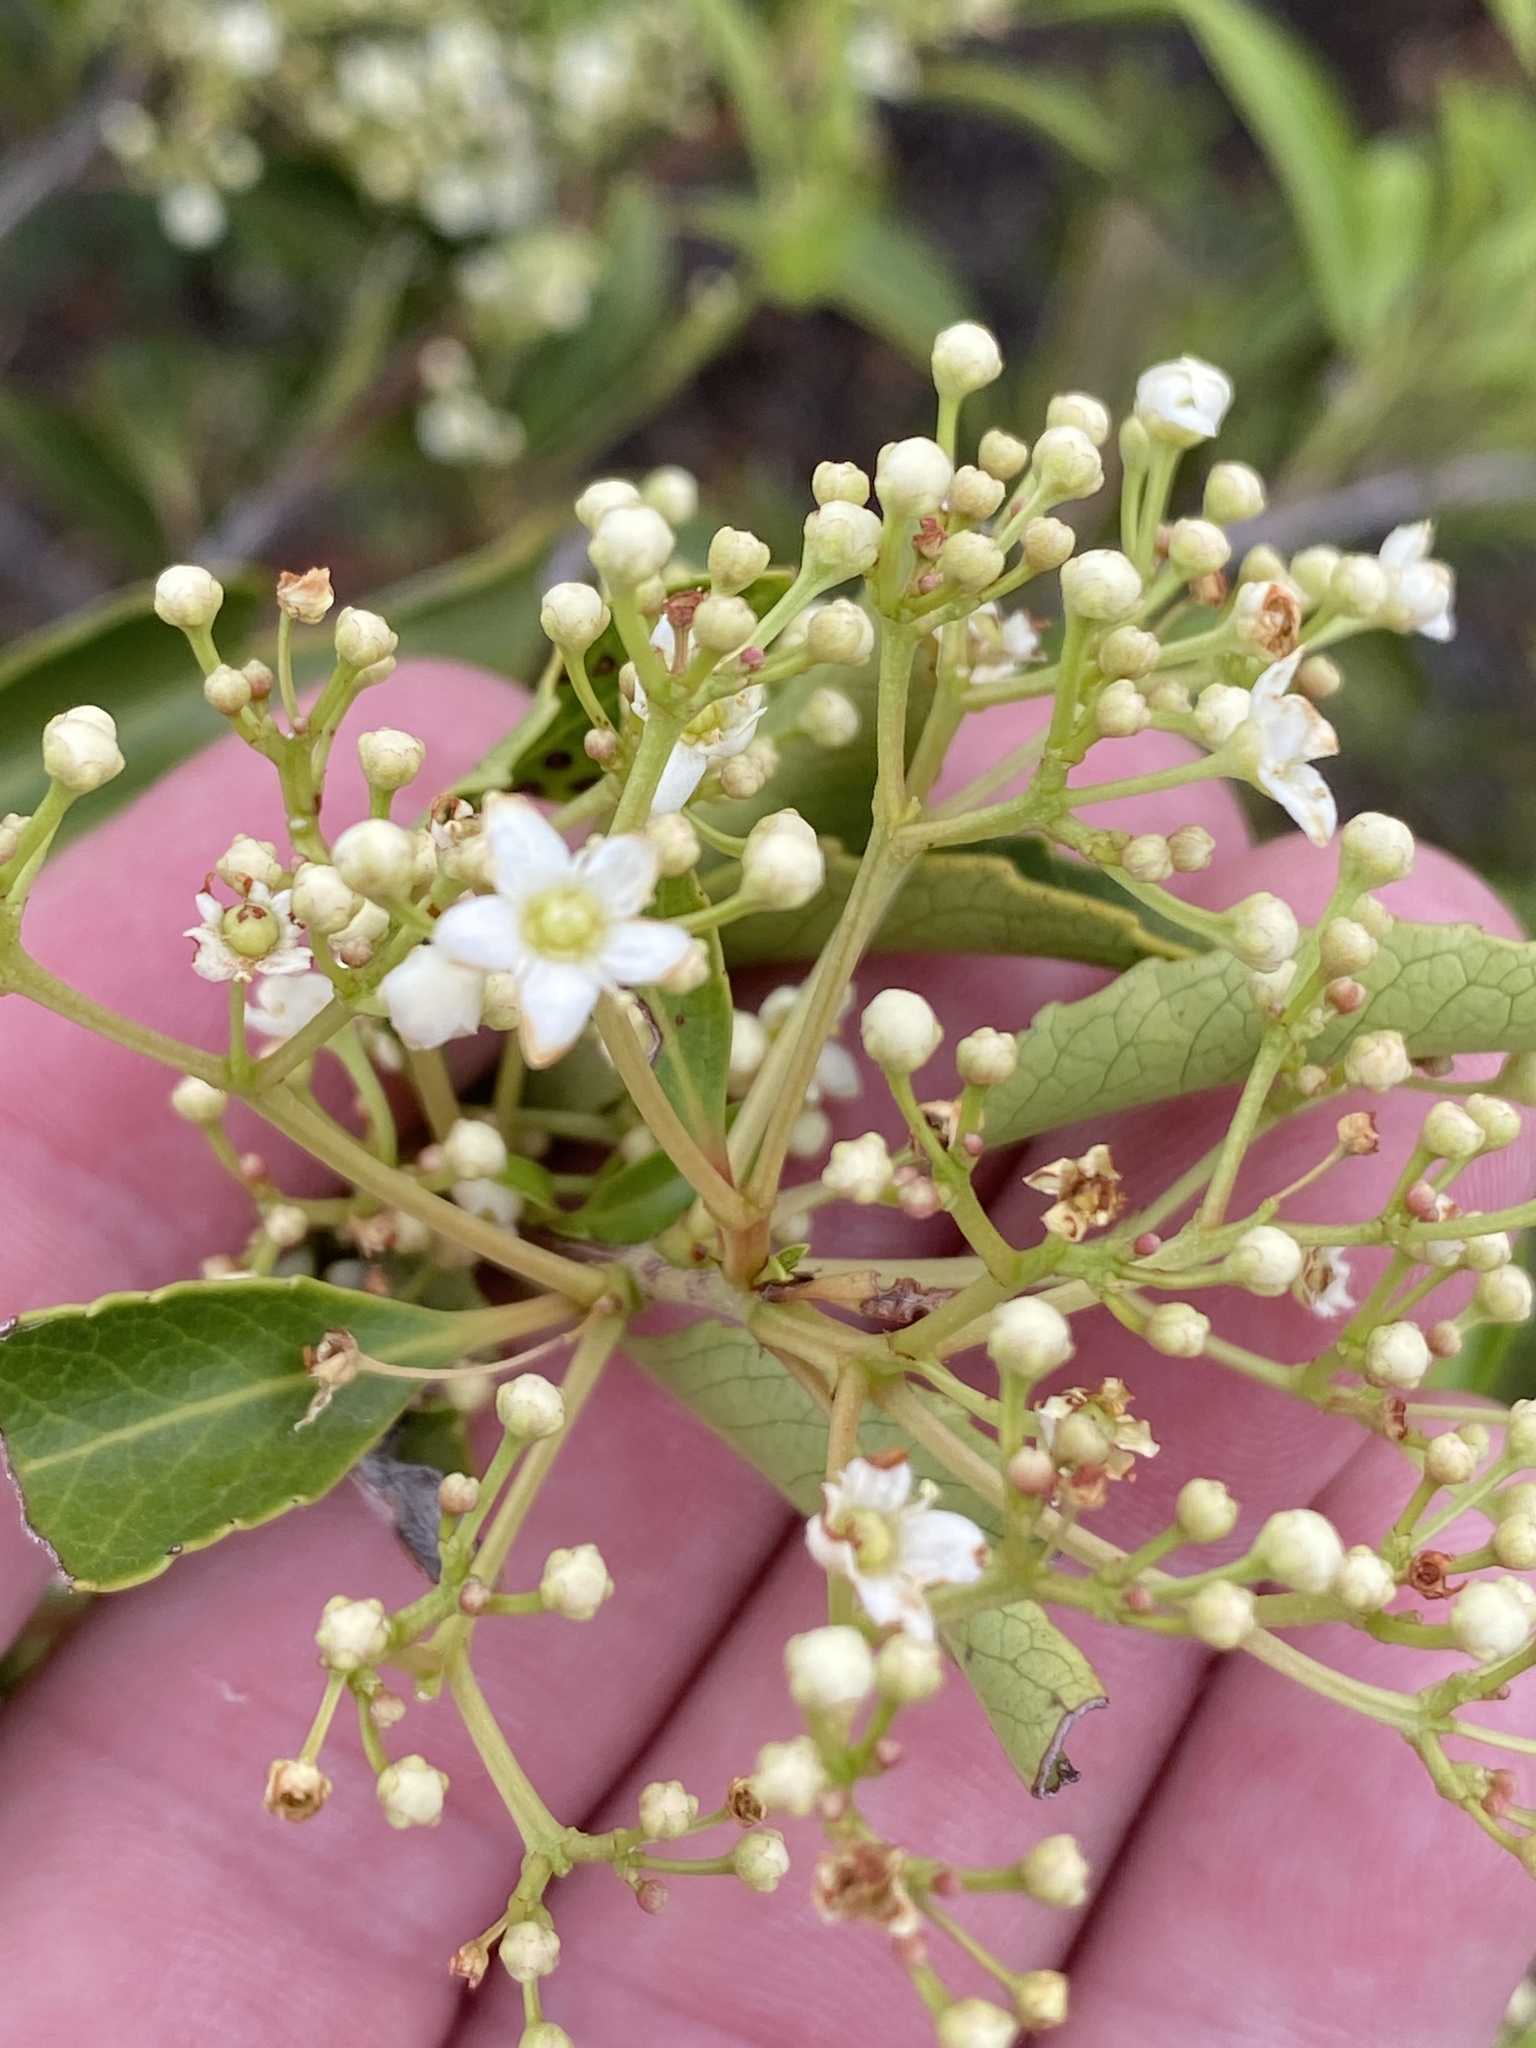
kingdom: Plantae
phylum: Tracheophyta
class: Magnoliopsida
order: Celastrales
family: Celastraceae
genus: Cassine
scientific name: Cassine peragua
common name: Cape saffron
